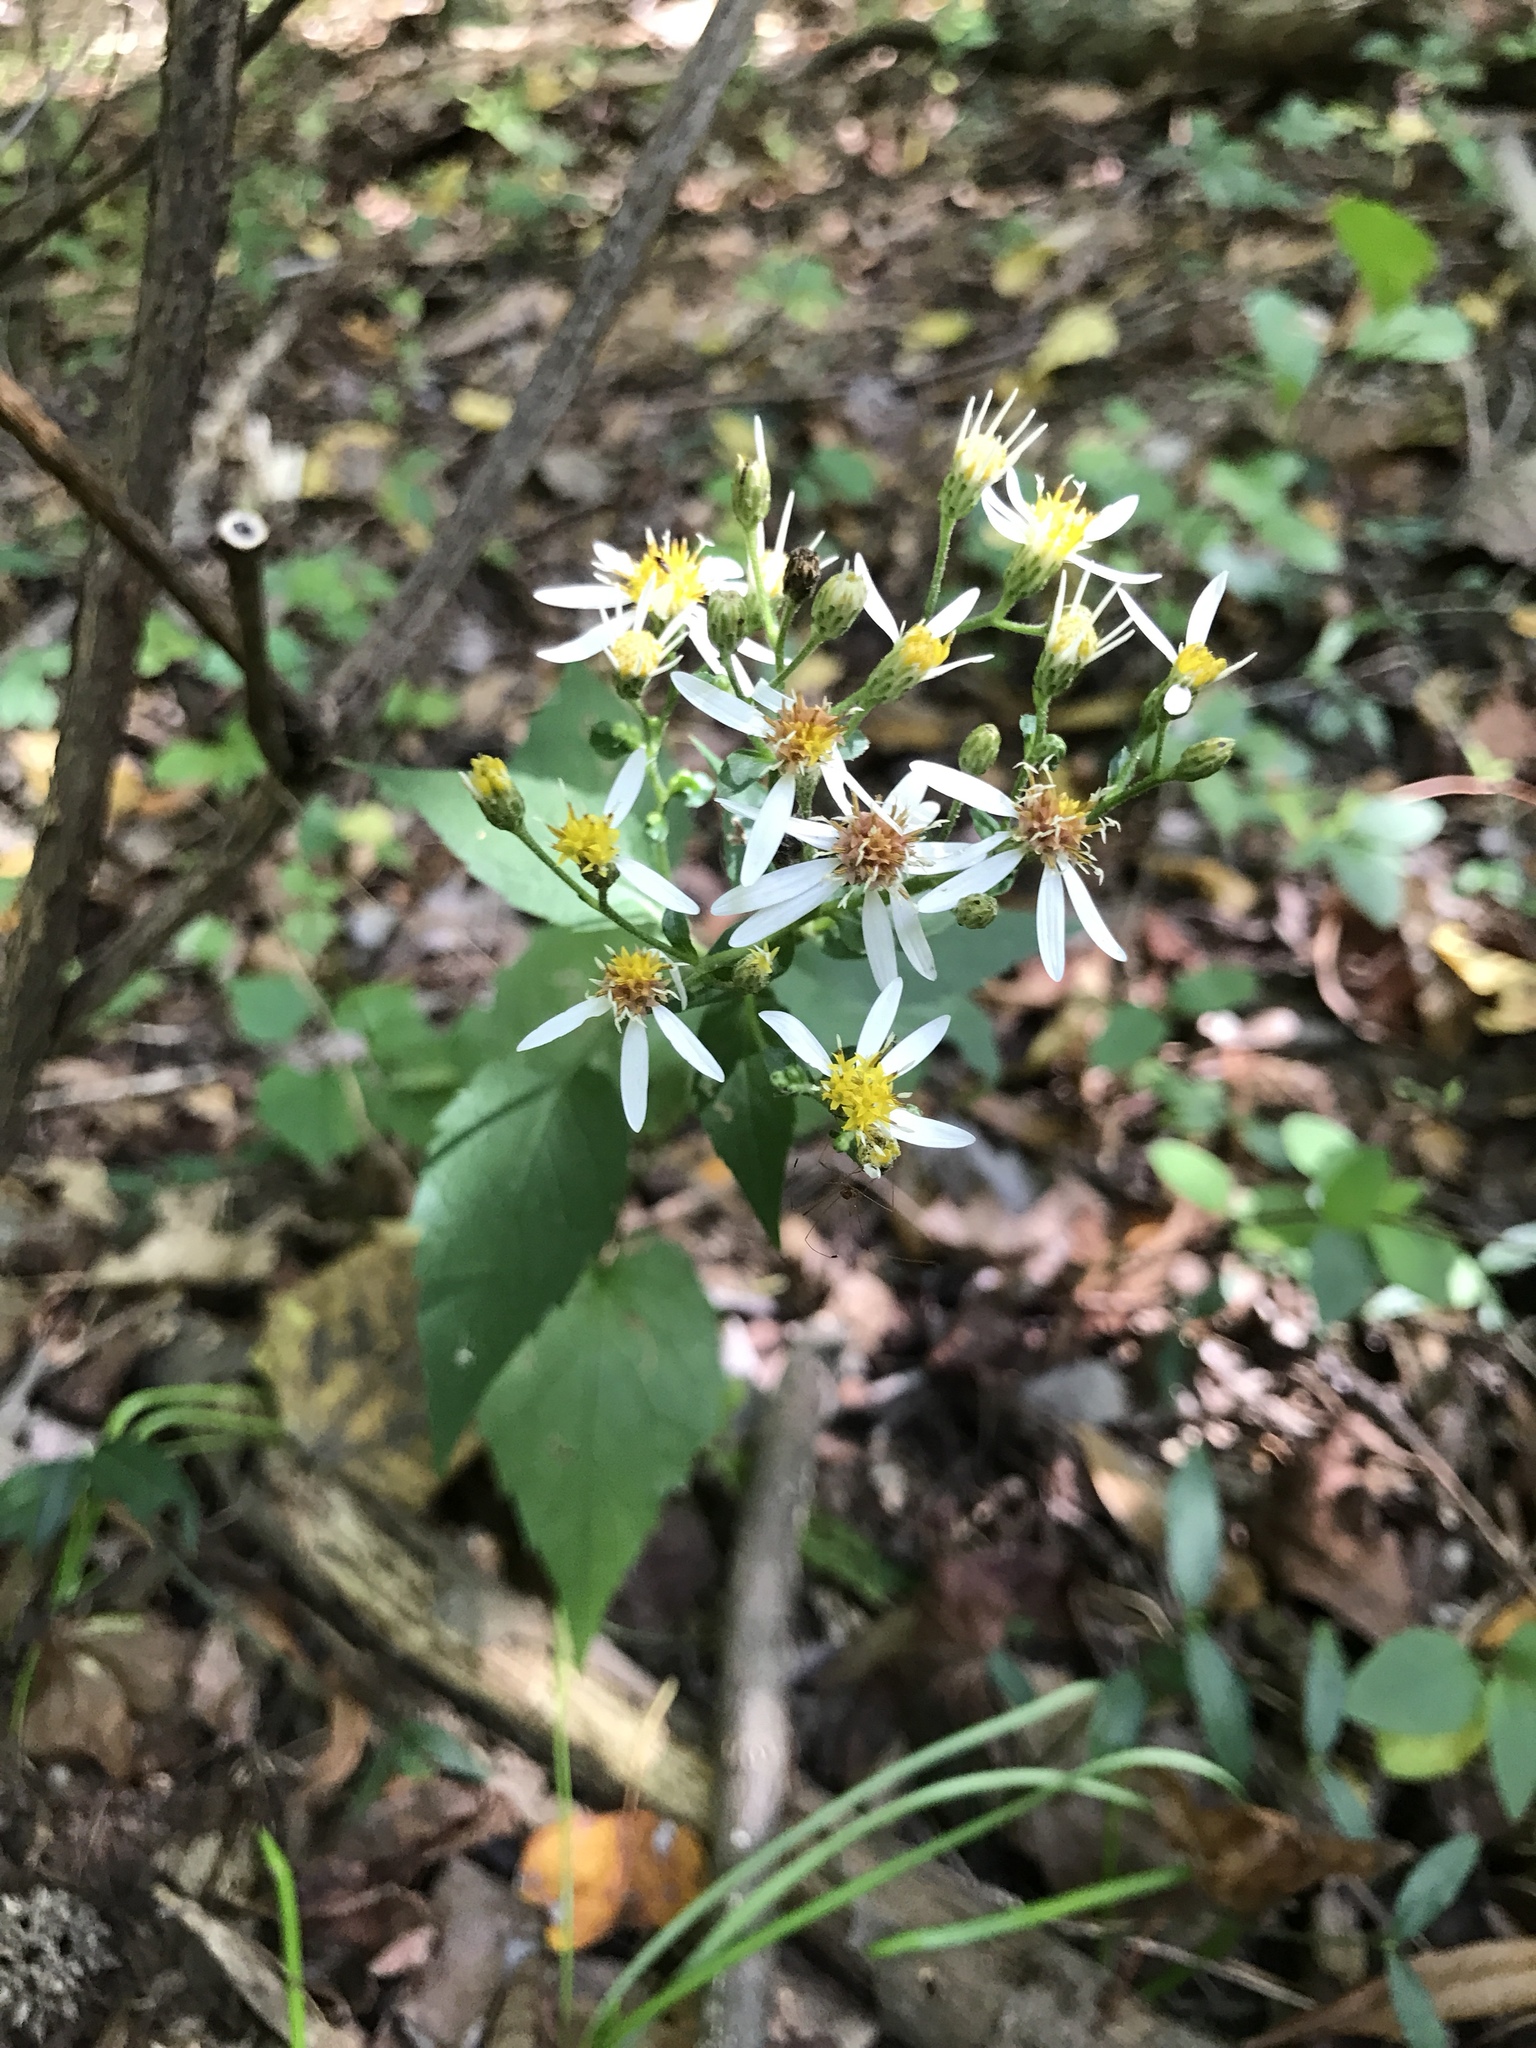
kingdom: Plantae
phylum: Tracheophyta
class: Magnoliopsida
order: Asterales
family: Asteraceae
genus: Eurybia
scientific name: Eurybia divaricata
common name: White wood aster
